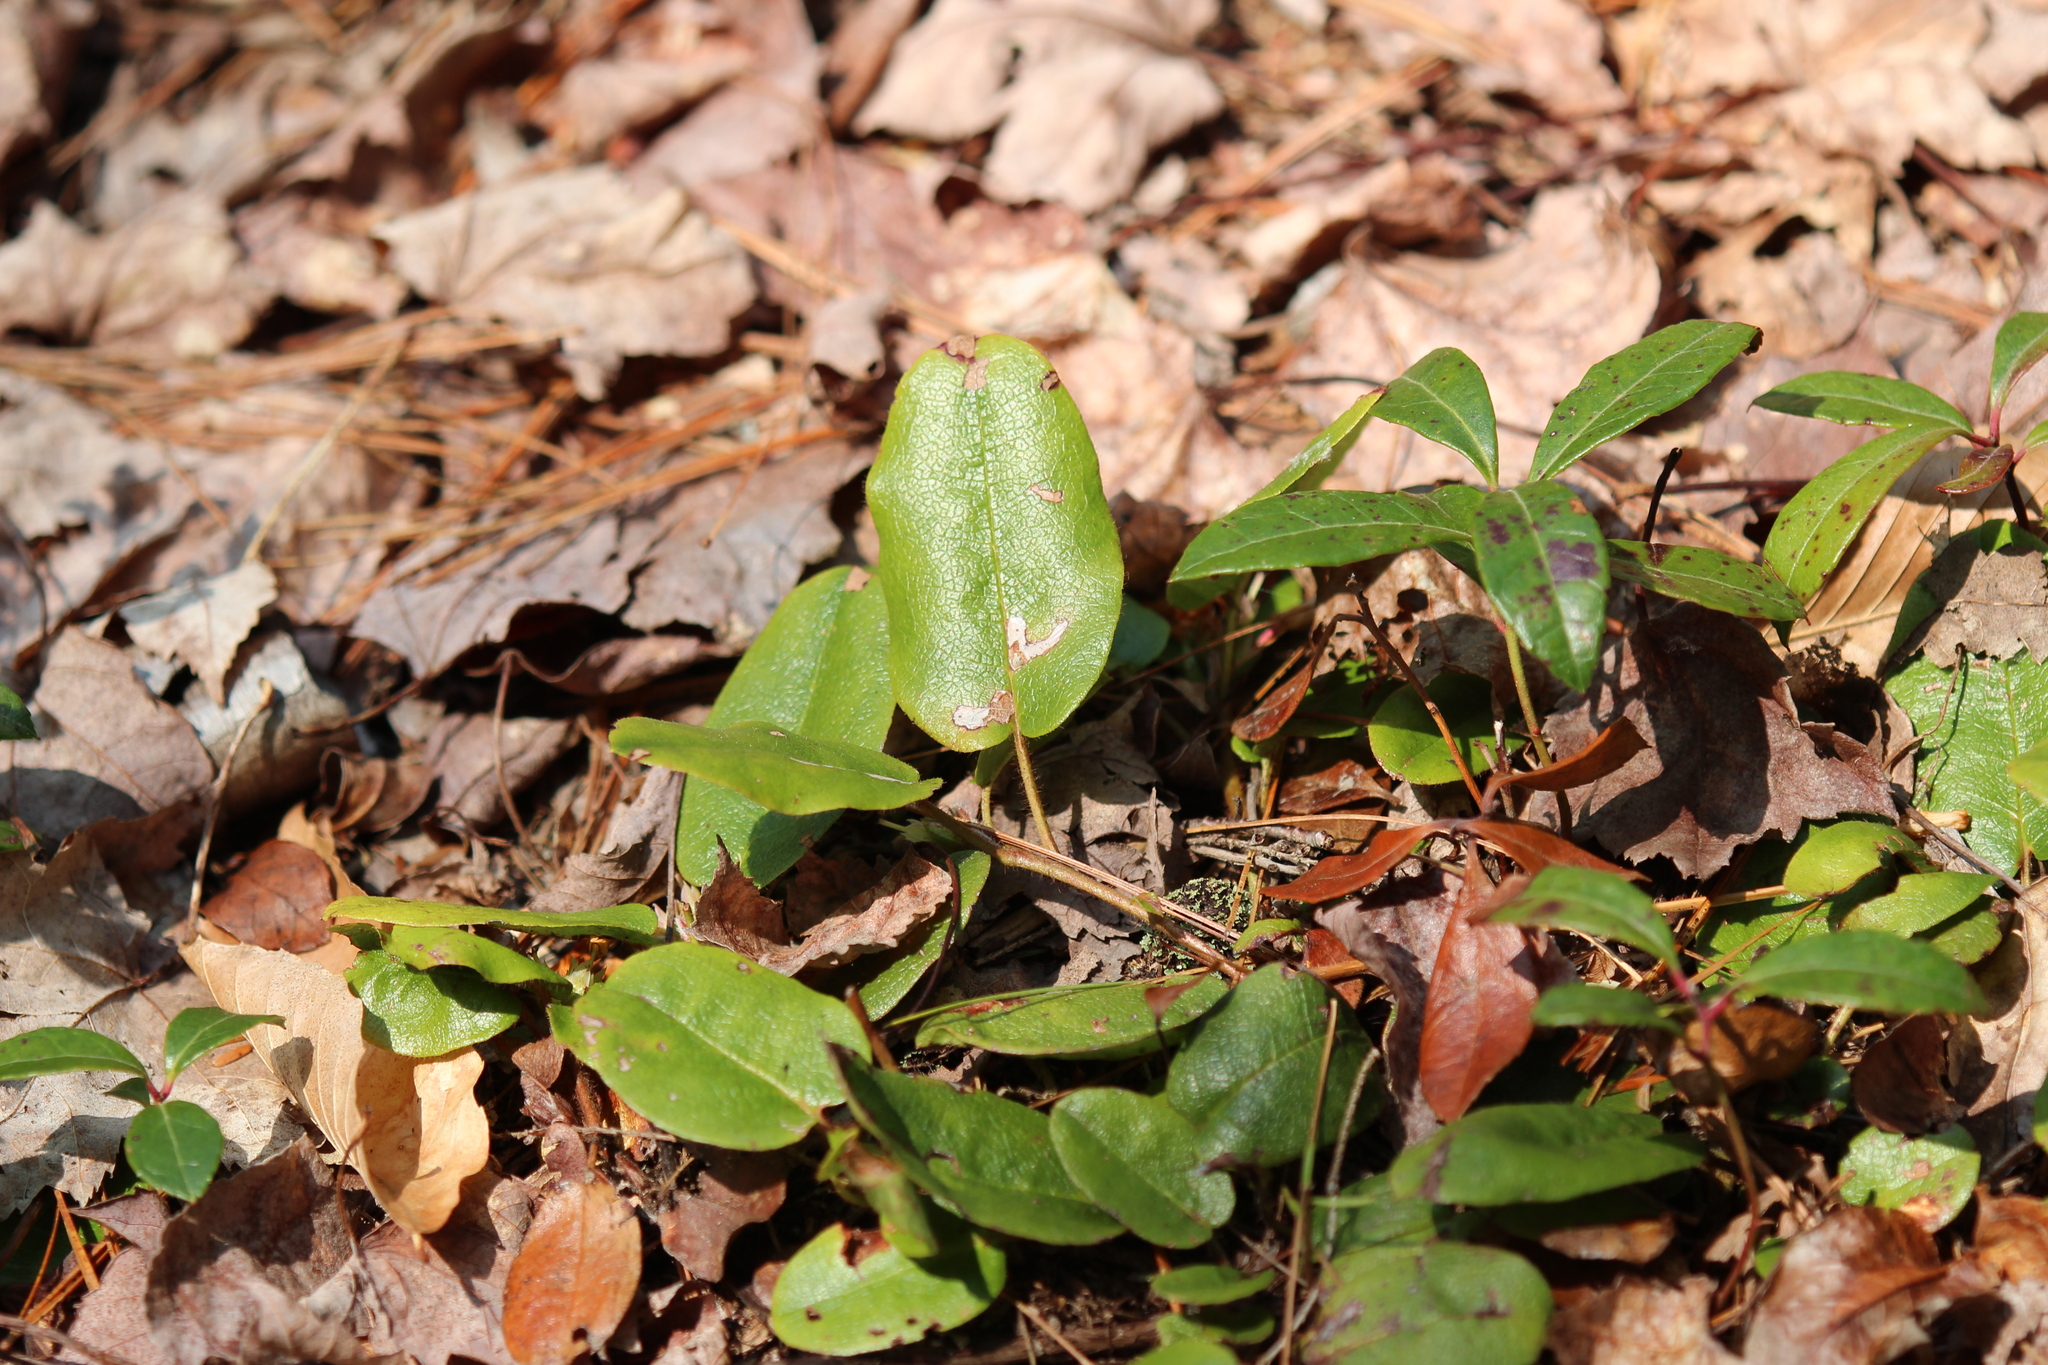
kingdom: Plantae
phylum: Tracheophyta
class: Magnoliopsida
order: Ericales
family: Ericaceae
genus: Epigaea
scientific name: Epigaea repens
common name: Gravelroot
